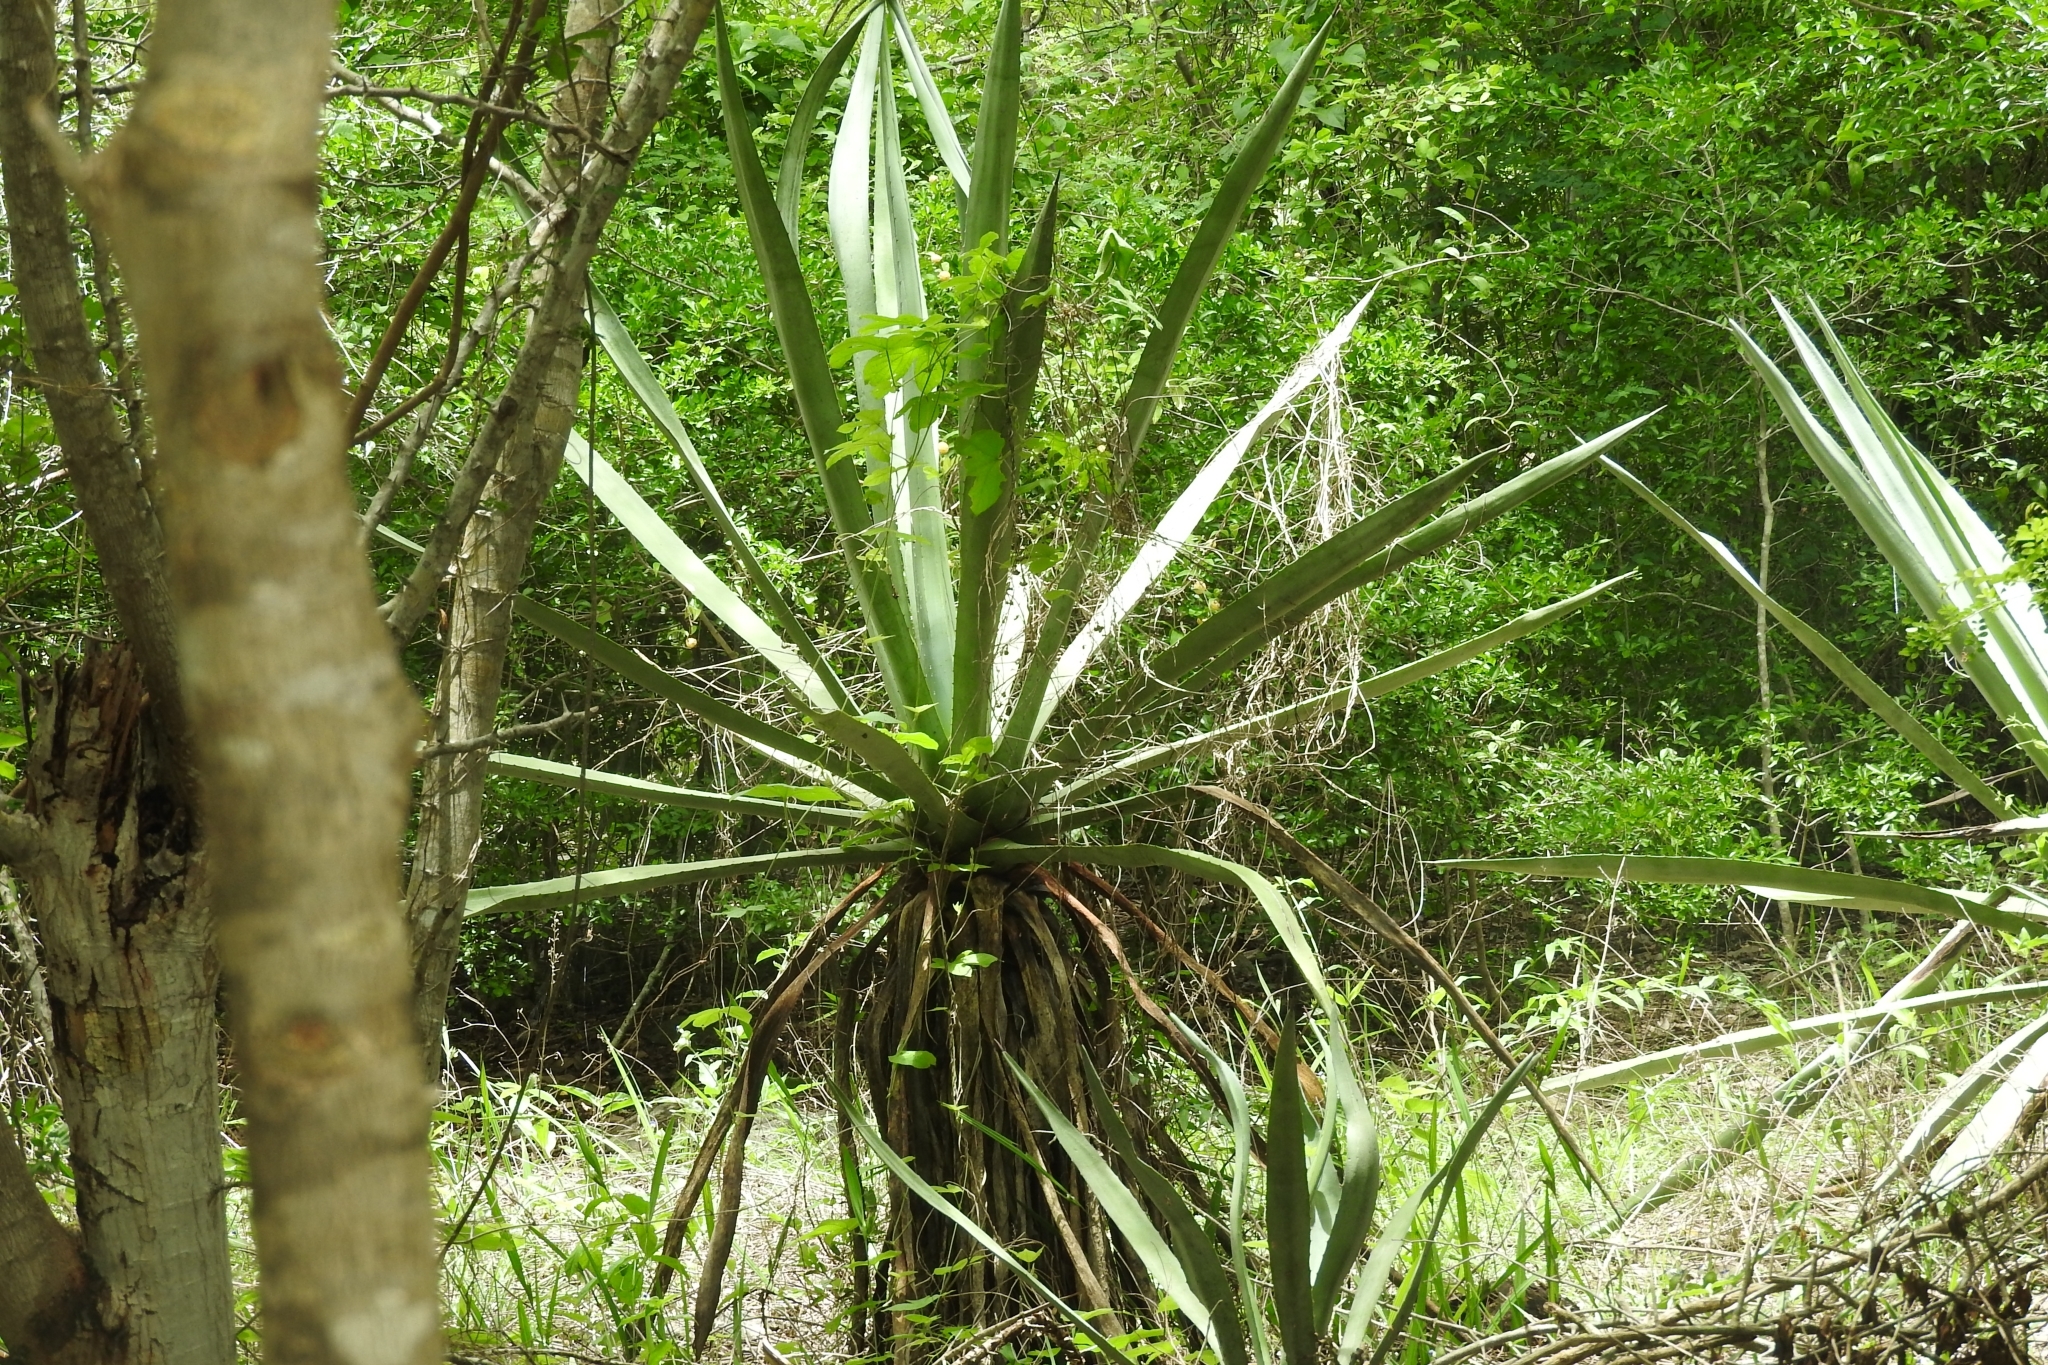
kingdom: Plantae
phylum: Tracheophyta
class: Liliopsida
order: Asparagales
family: Asparagaceae
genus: Agave
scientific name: Agave angustifolia
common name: Mescal agave
